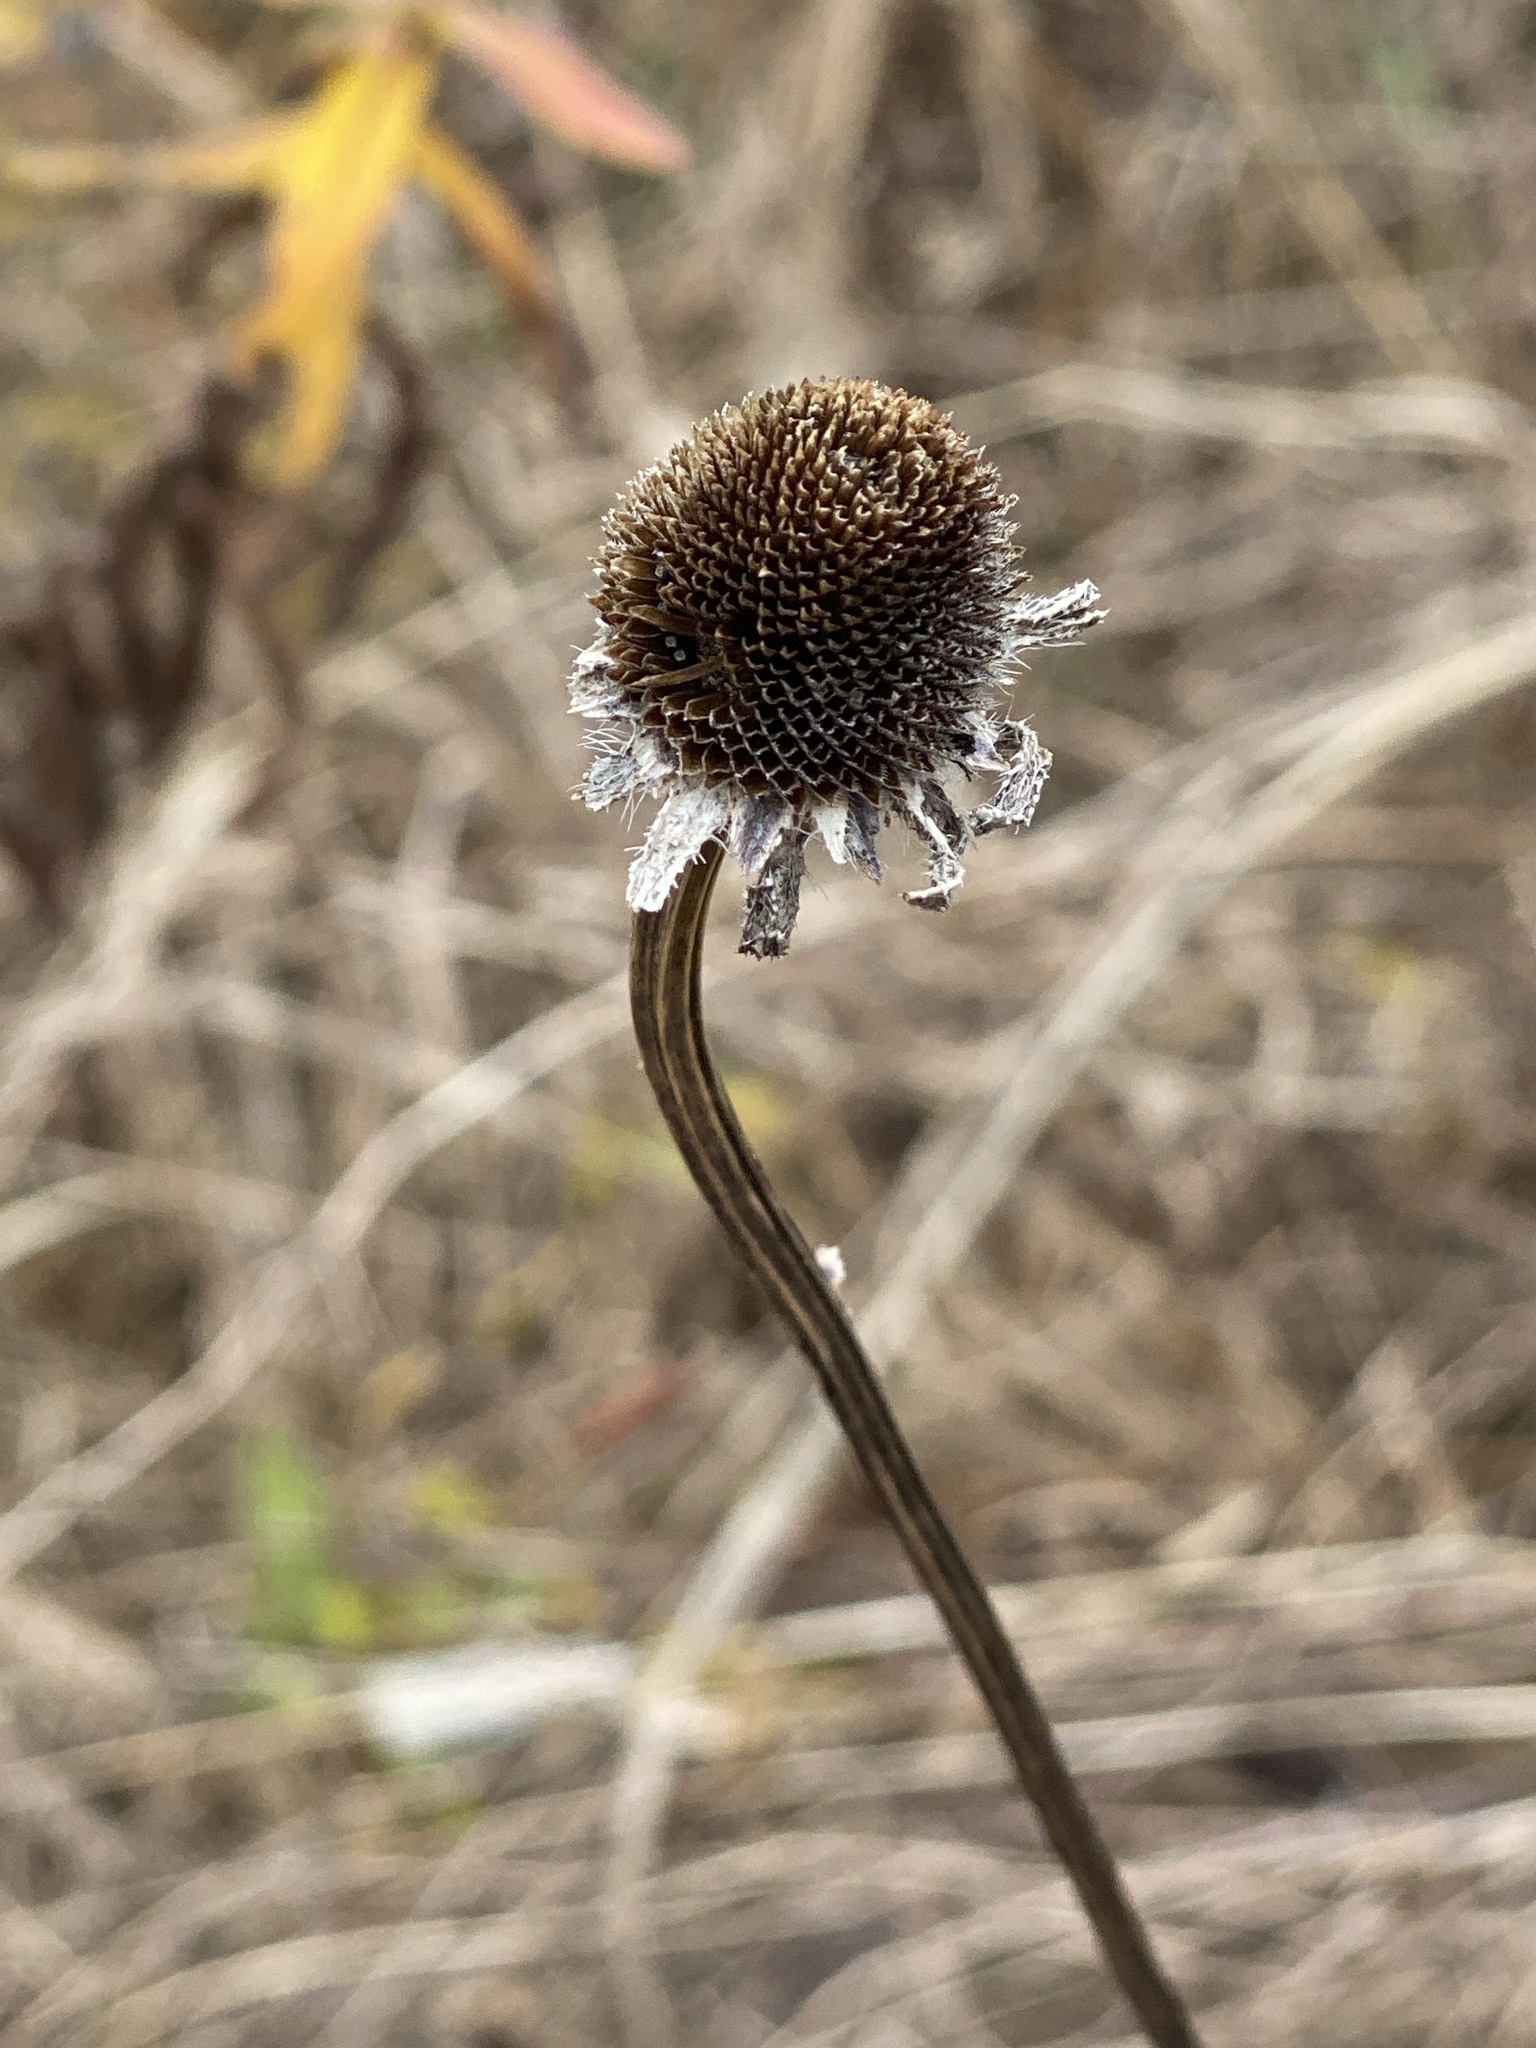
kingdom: Plantae
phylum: Tracheophyta
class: Magnoliopsida
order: Asterales
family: Asteraceae
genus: Rudbeckia
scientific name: Rudbeckia hirta
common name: Black-eyed-susan
